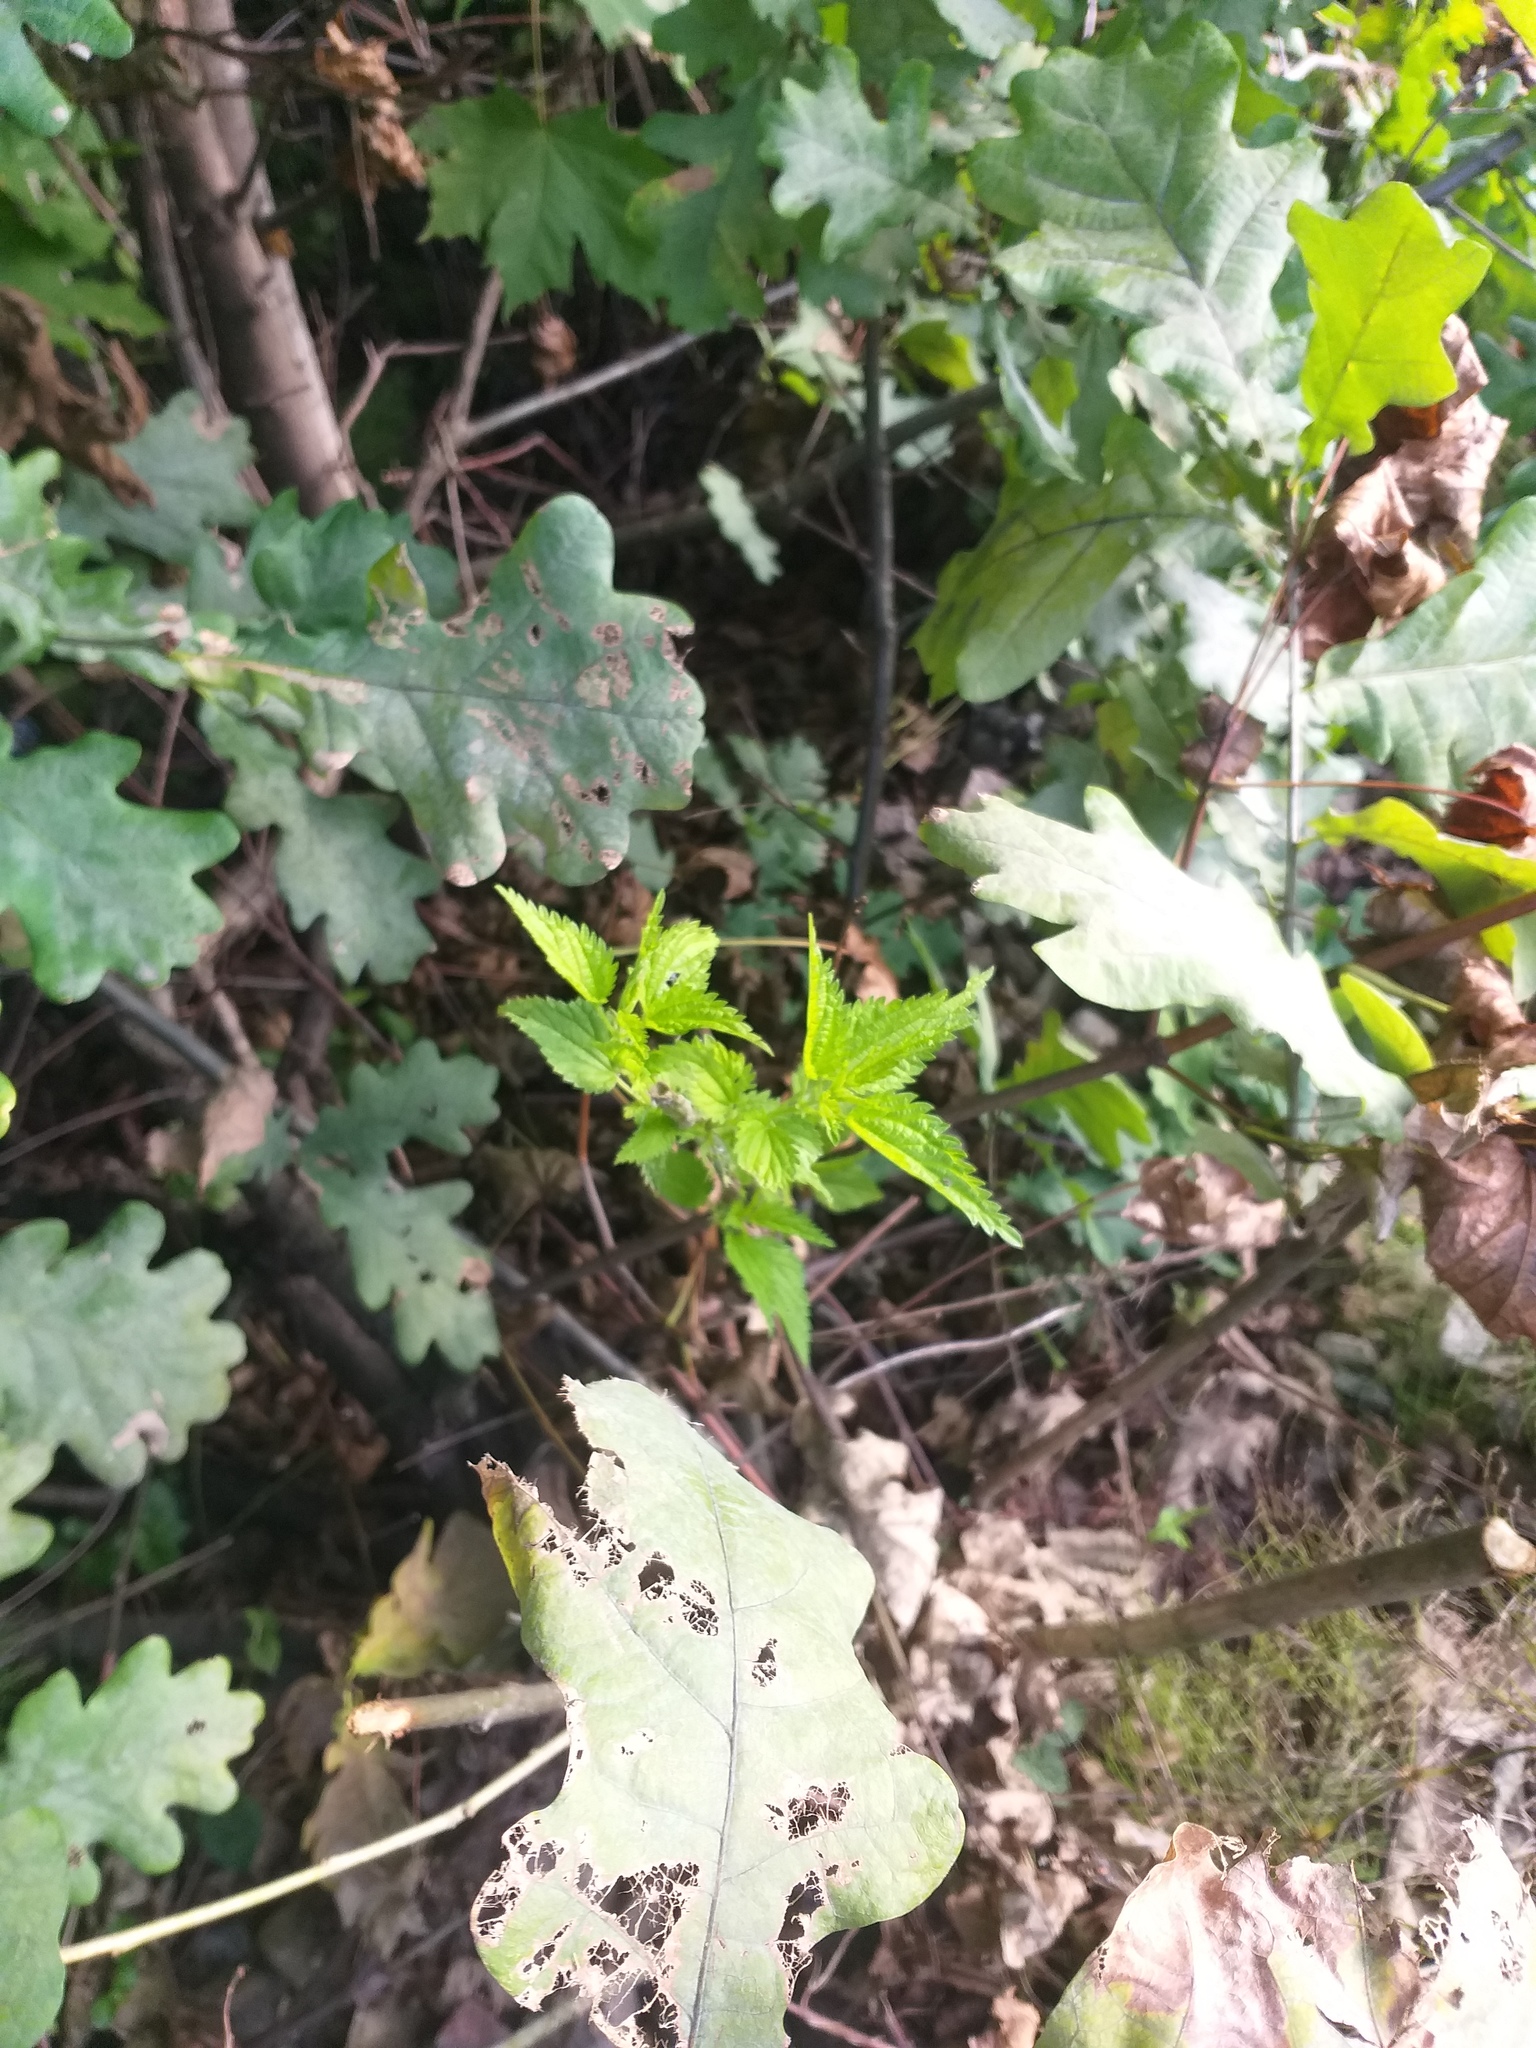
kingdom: Plantae
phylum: Tracheophyta
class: Magnoliopsida
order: Rosales
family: Urticaceae
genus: Urtica
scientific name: Urtica dioica
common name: Common nettle
